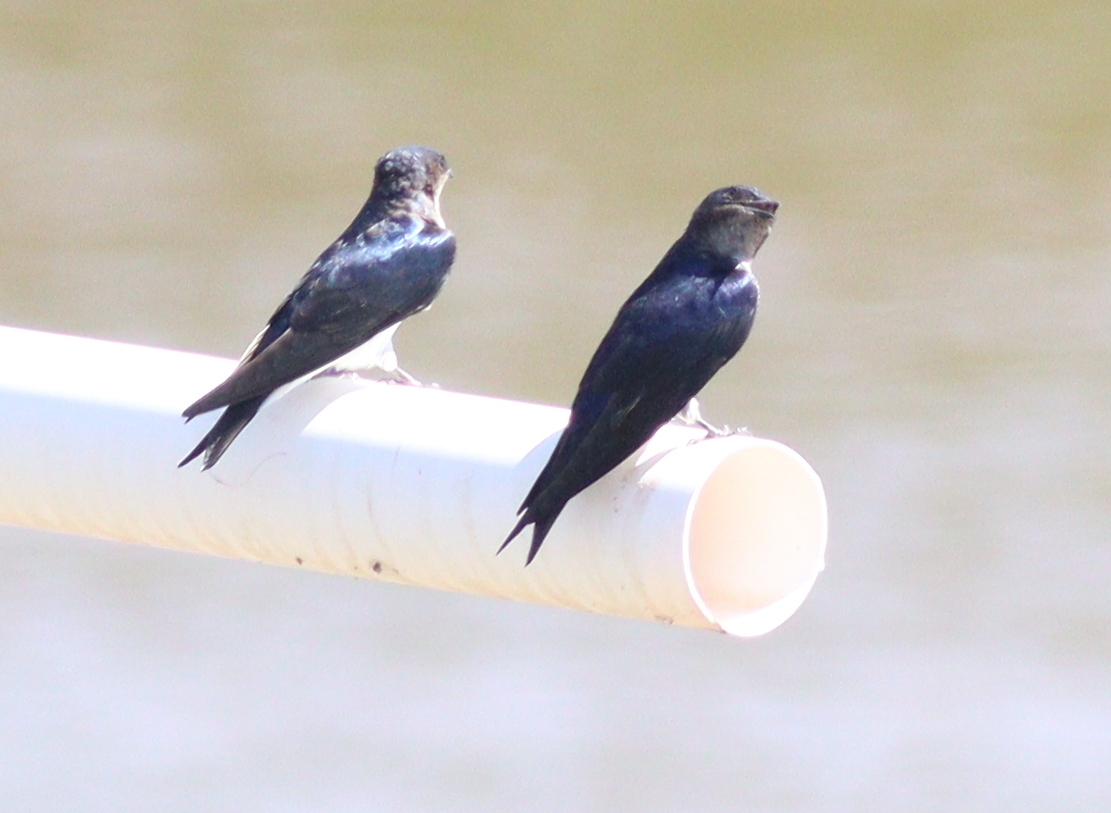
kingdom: Animalia
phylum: Chordata
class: Aves
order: Passeriformes
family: Hirundinidae
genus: Progne
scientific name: Progne chalybea
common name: Grey-breasted martin
